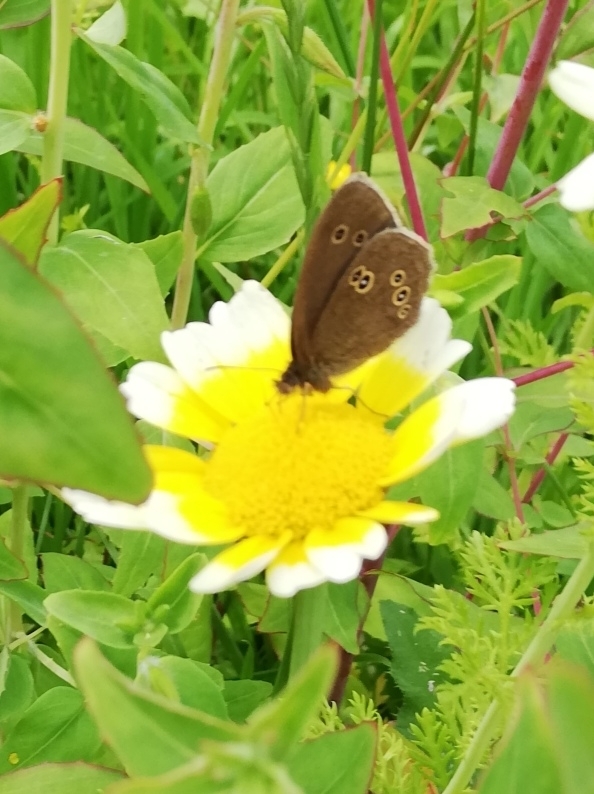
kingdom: Animalia
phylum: Arthropoda
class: Insecta
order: Lepidoptera
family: Nymphalidae
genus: Aphantopus
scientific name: Aphantopus hyperantus
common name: Ringlet
